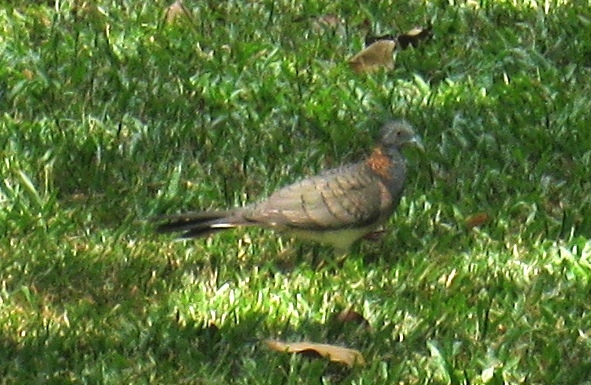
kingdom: Animalia
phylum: Chordata
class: Aves
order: Columbiformes
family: Columbidae
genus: Geopelia
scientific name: Geopelia humeralis
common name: Bar-shouldered dove
